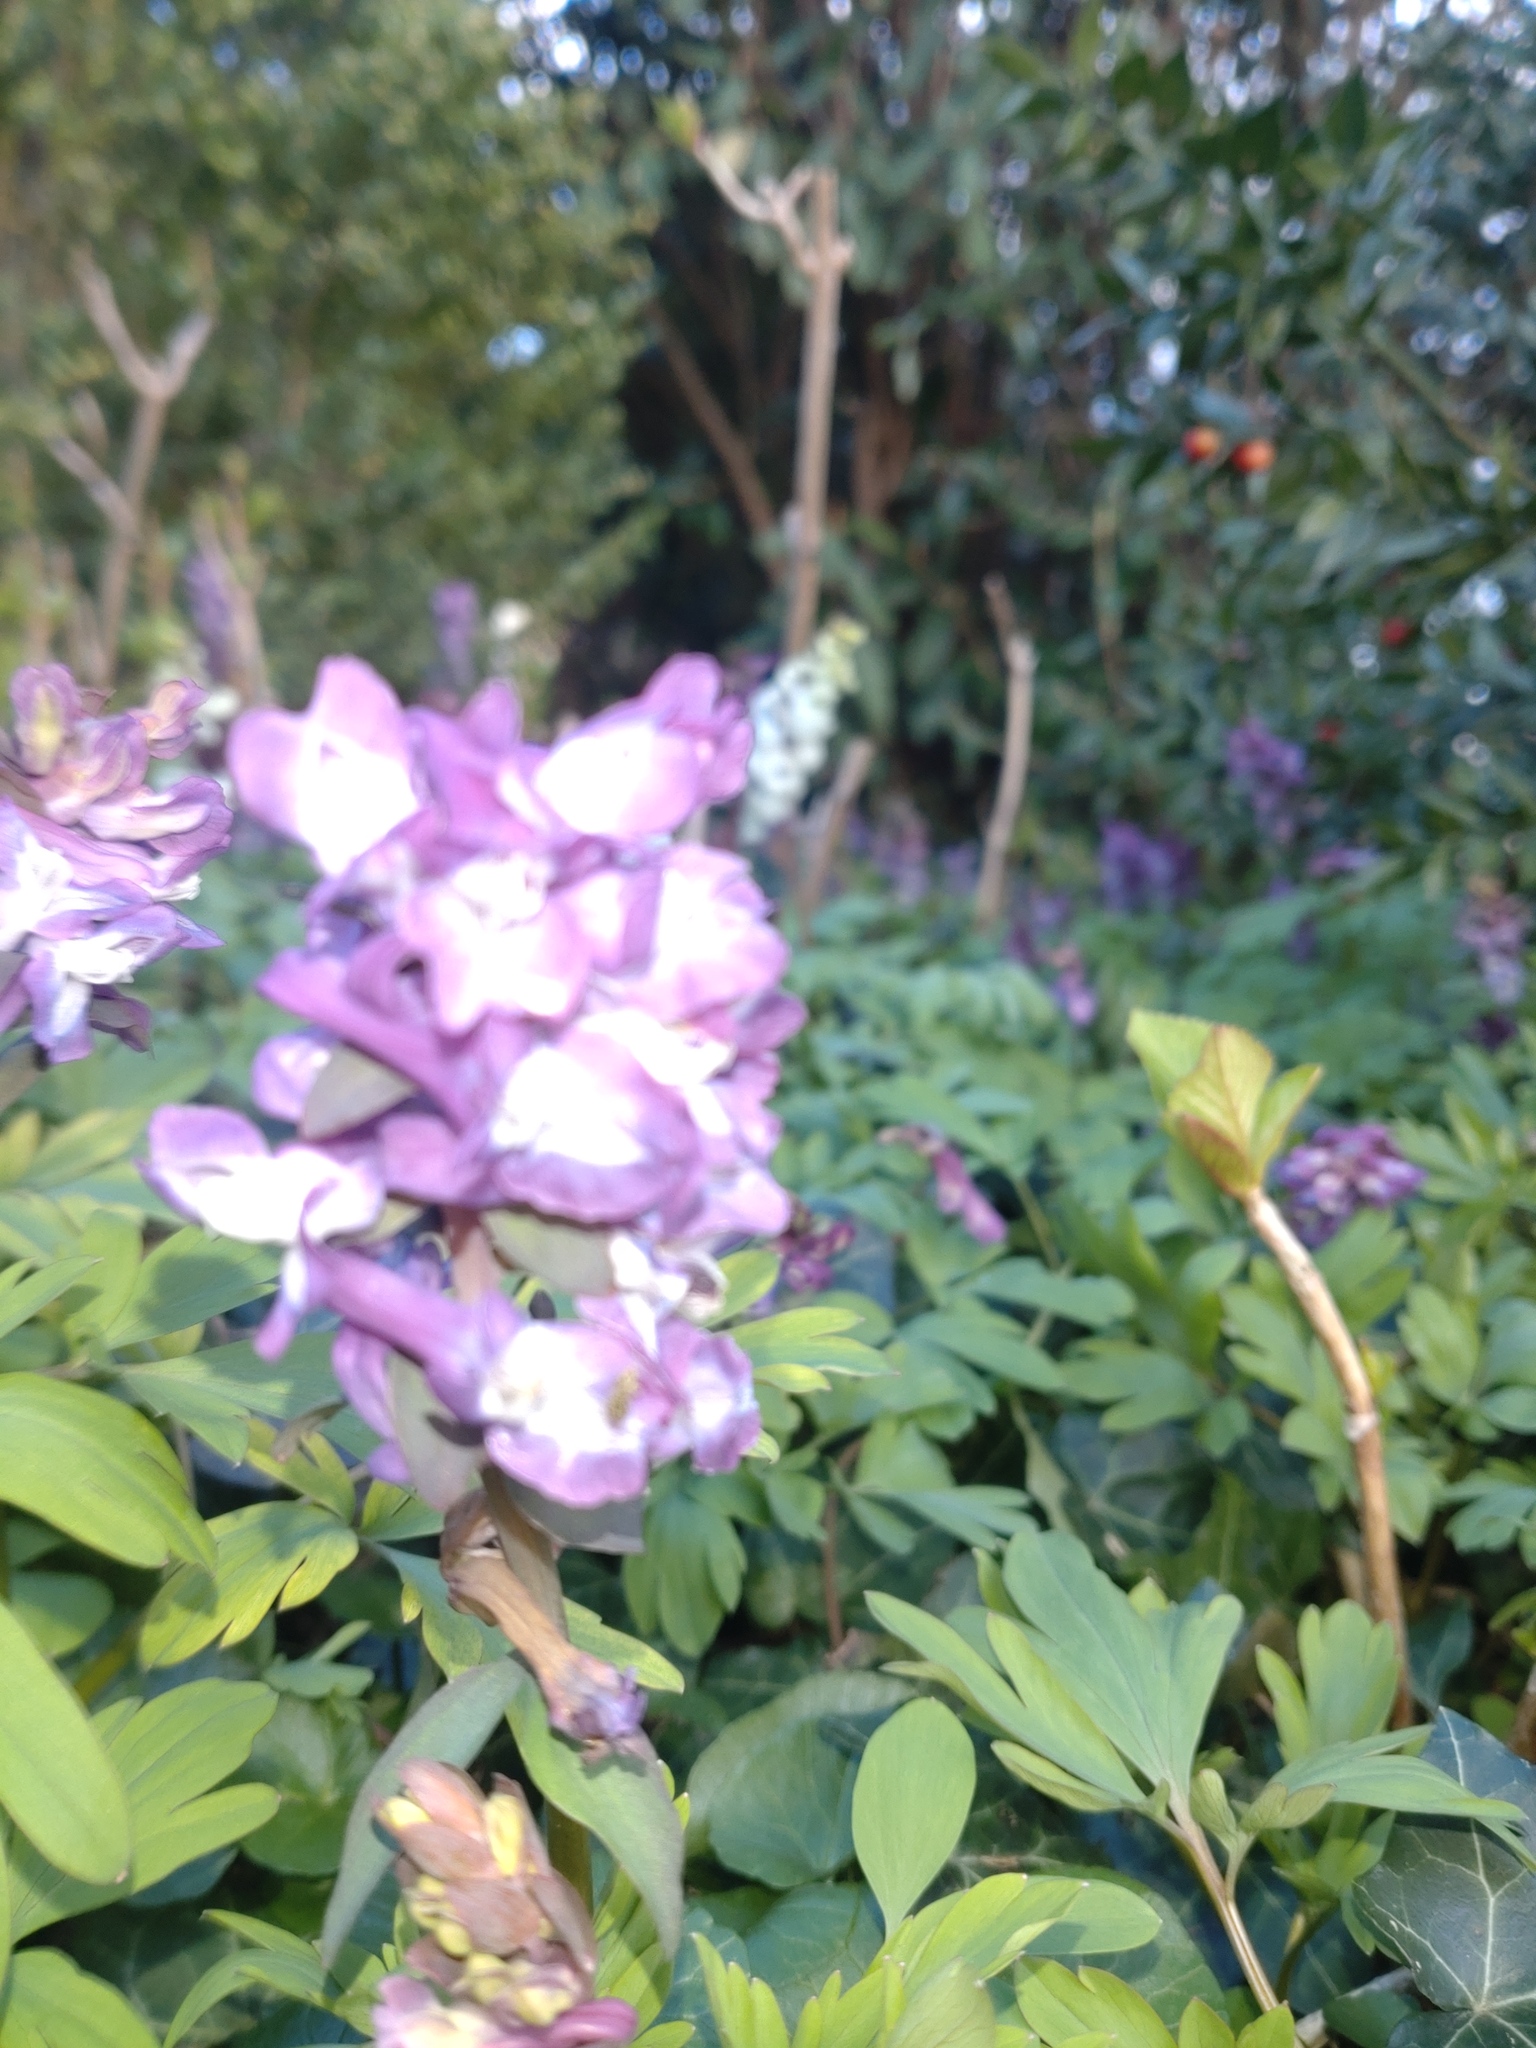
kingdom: Plantae
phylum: Tracheophyta
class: Magnoliopsida
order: Ranunculales
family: Papaveraceae
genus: Corydalis
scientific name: Corydalis cava
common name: Hollowroot
